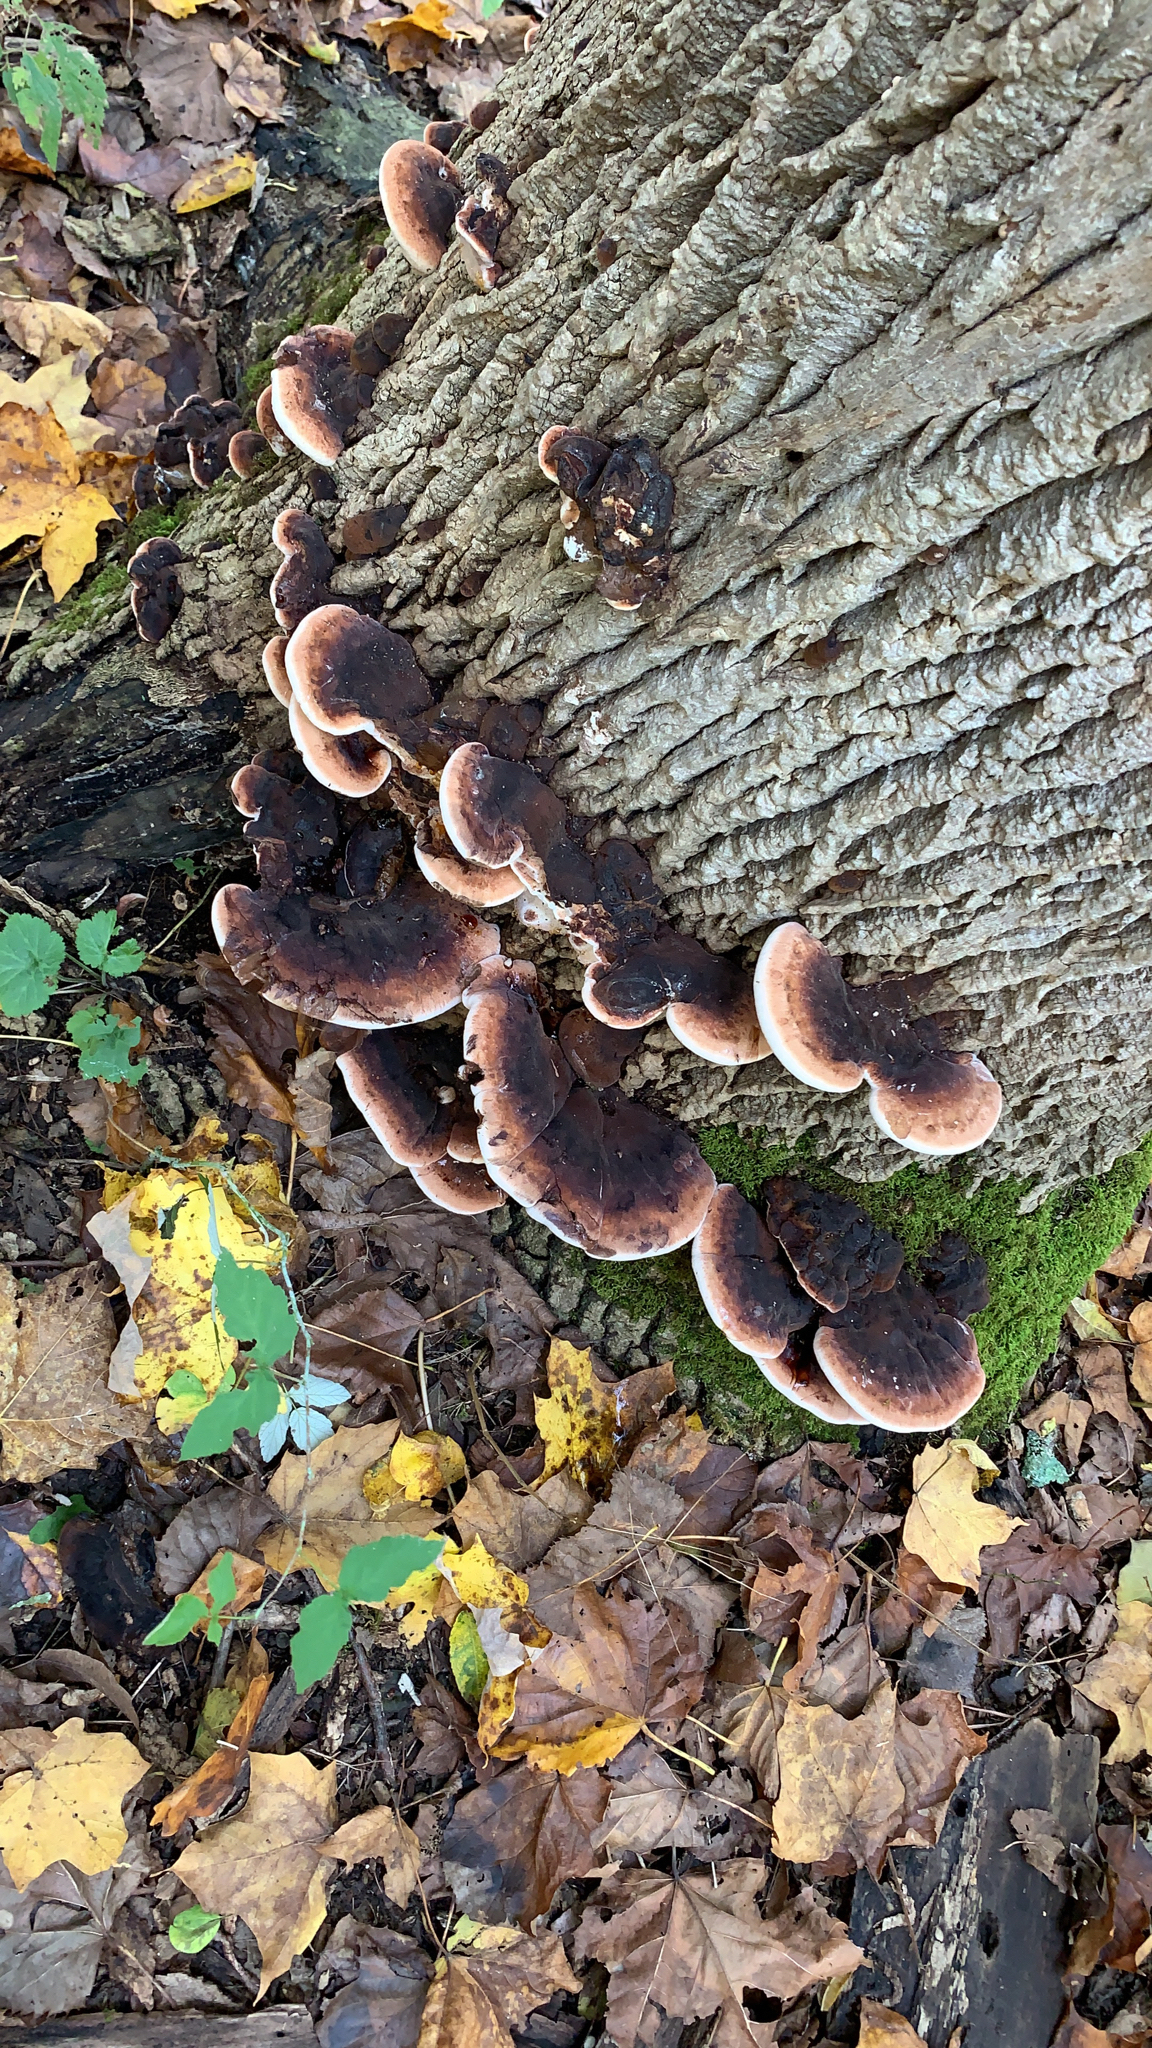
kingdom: Fungi
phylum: Basidiomycota
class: Agaricomycetes
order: Polyporales
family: Ischnodermataceae
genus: Ischnoderma
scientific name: Ischnoderma resinosum
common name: Resinous polypore
